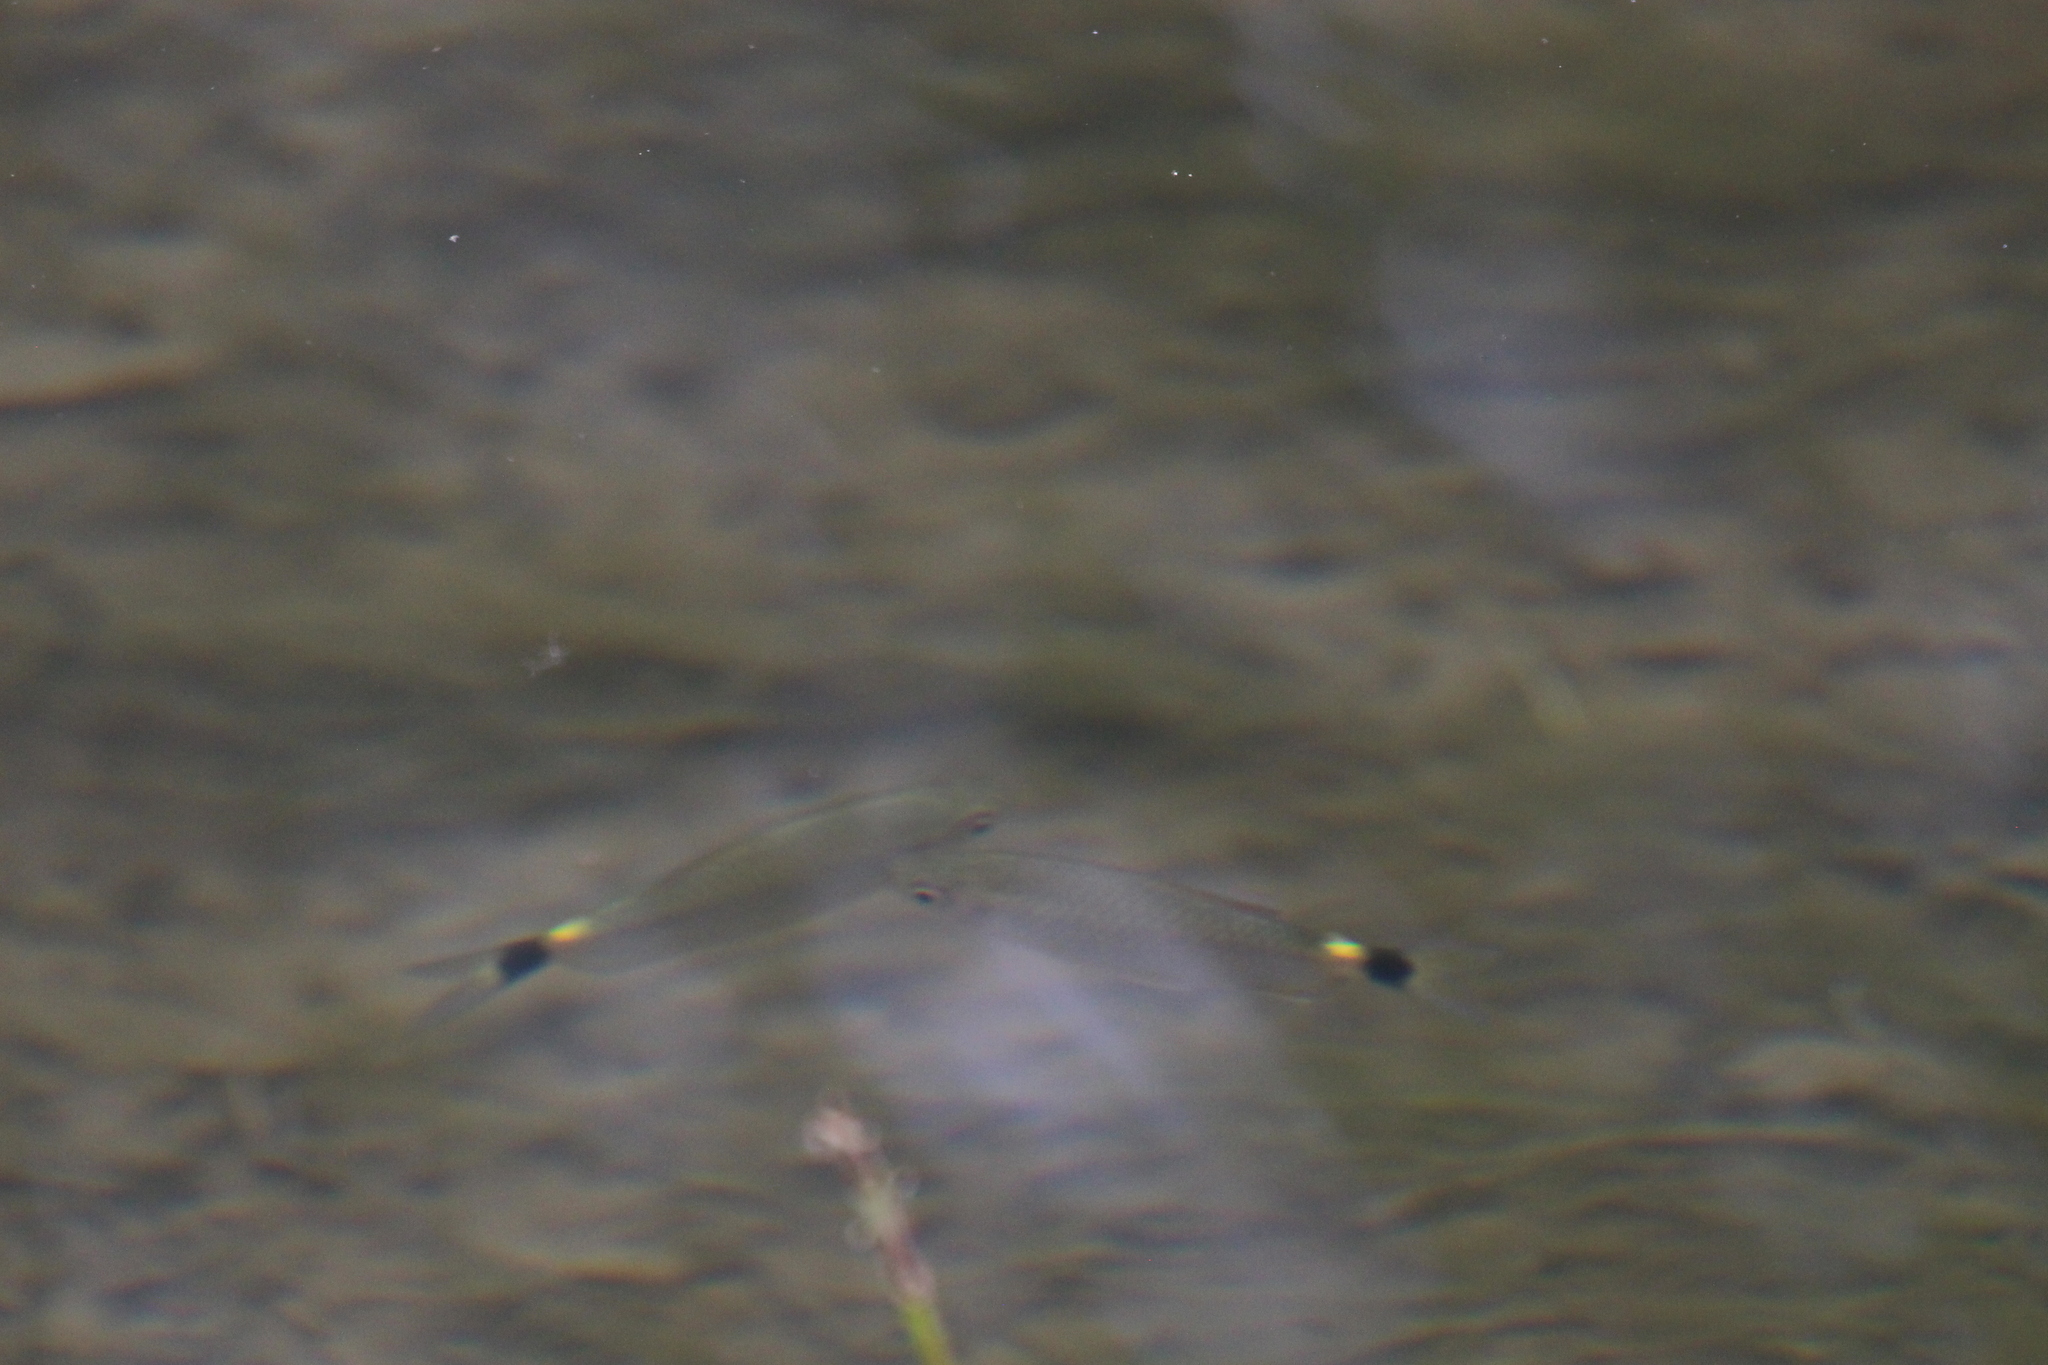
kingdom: Animalia
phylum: Chordata
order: Characiformes
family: Characidae
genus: Moenkhausia
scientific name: Moenkhausia oligolepis
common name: Glass tetra
